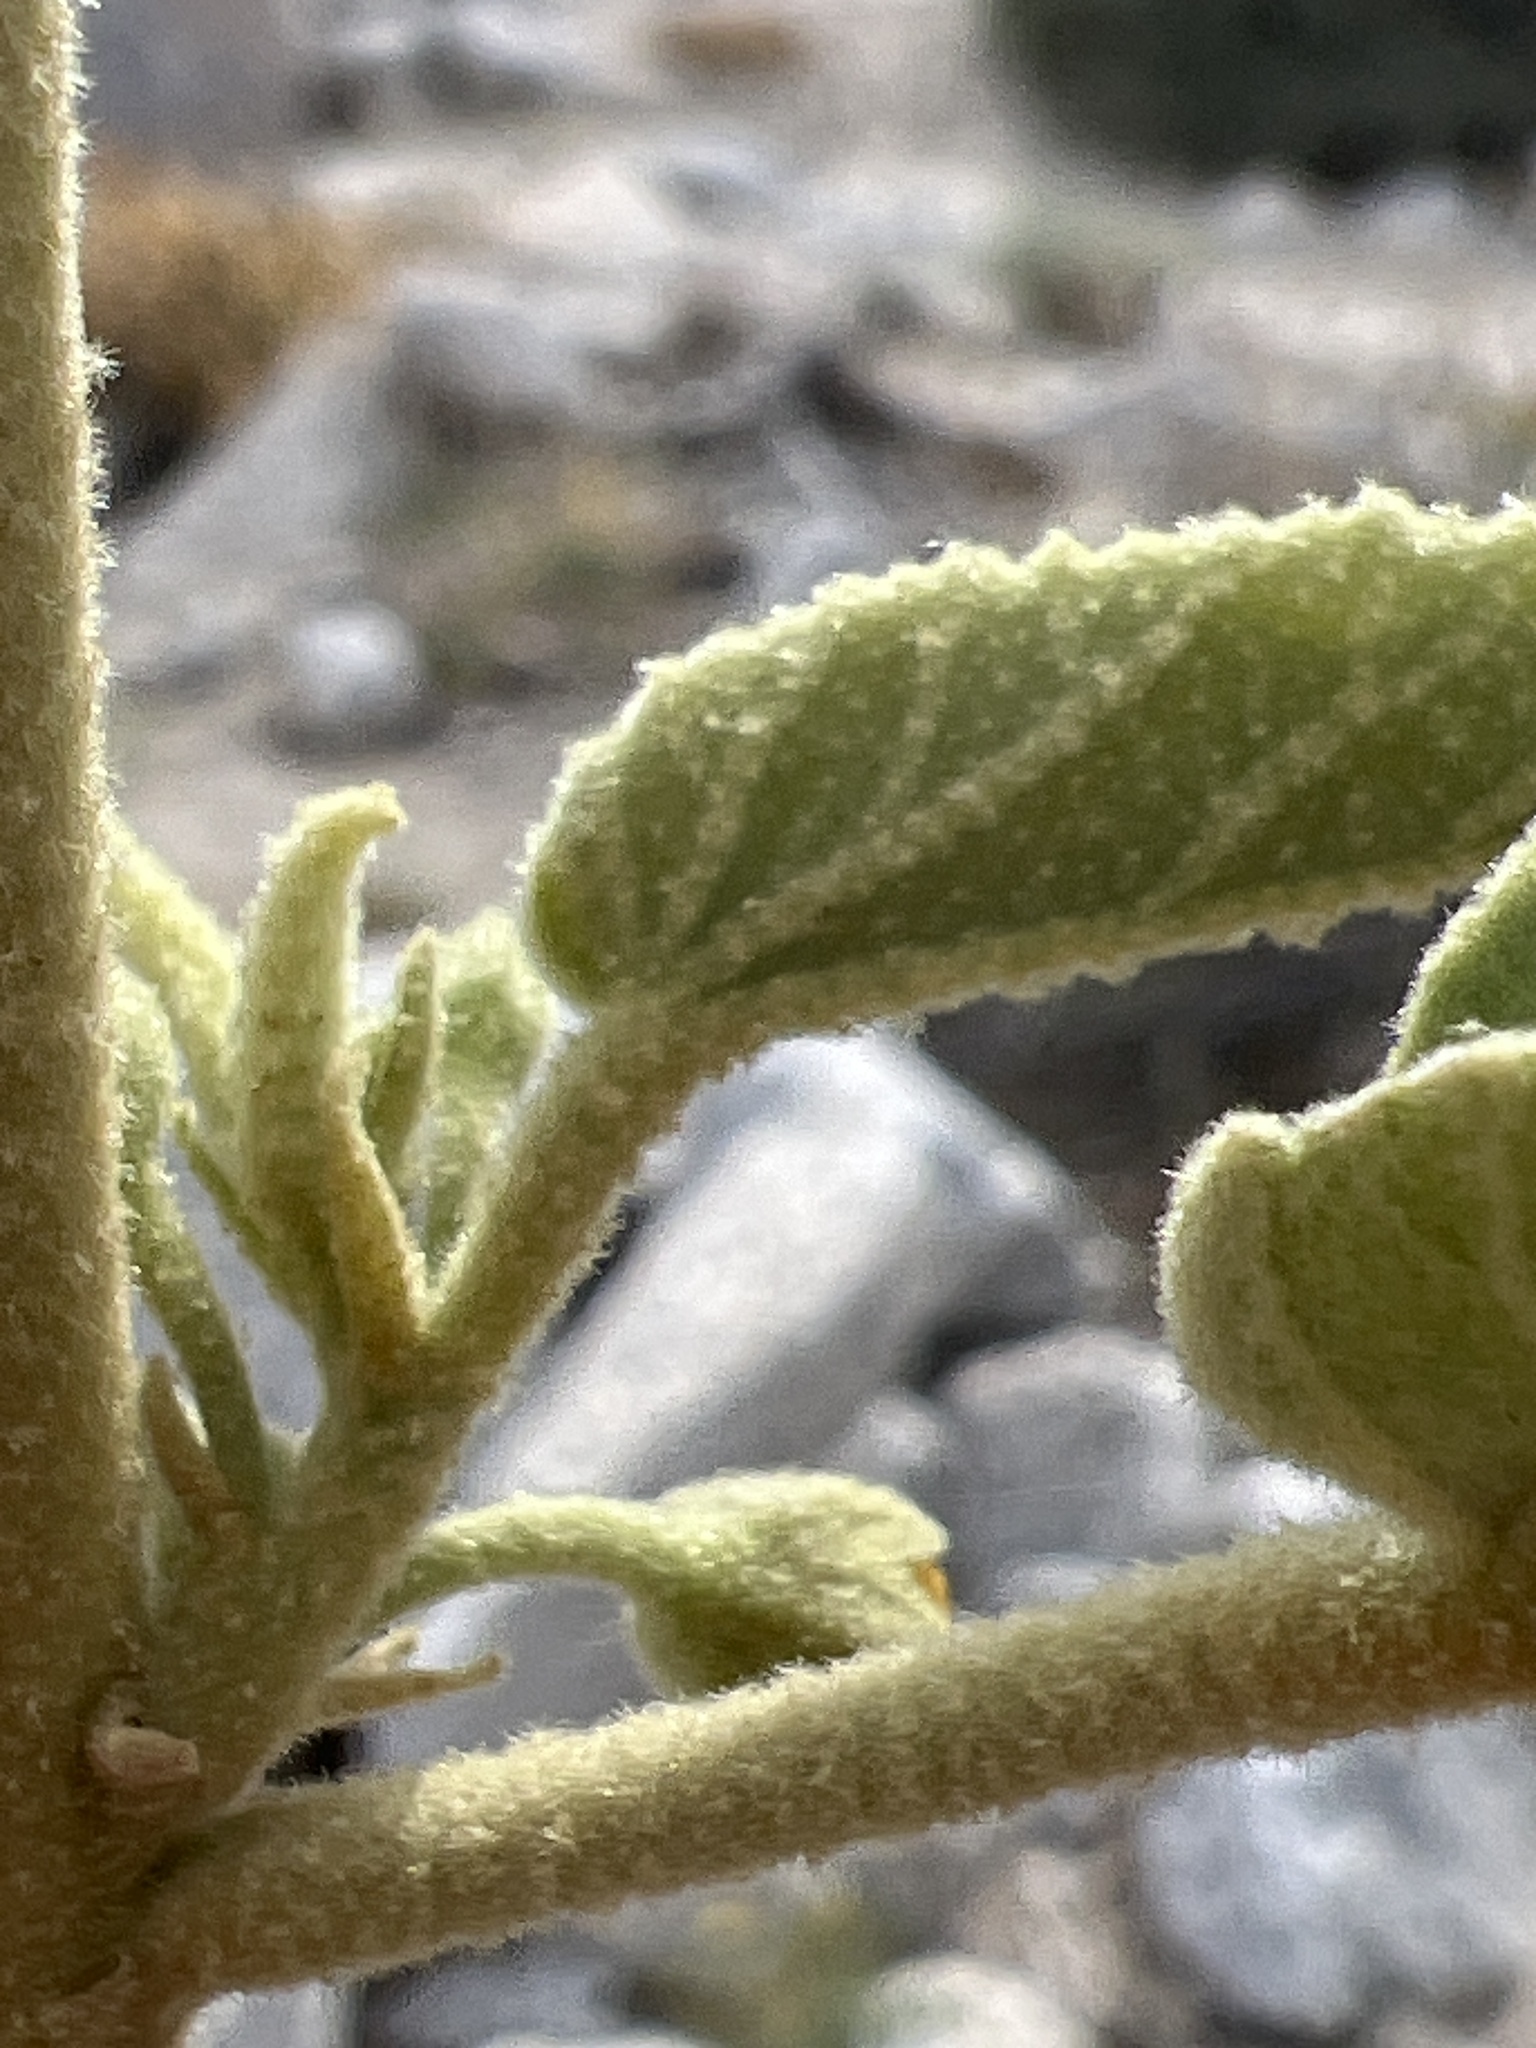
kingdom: Plantae
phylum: Tracheophyta
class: Magnoliopsida
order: Malvales
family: Malvaceae
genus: Horsfordia
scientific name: Horsfordia newberryi
